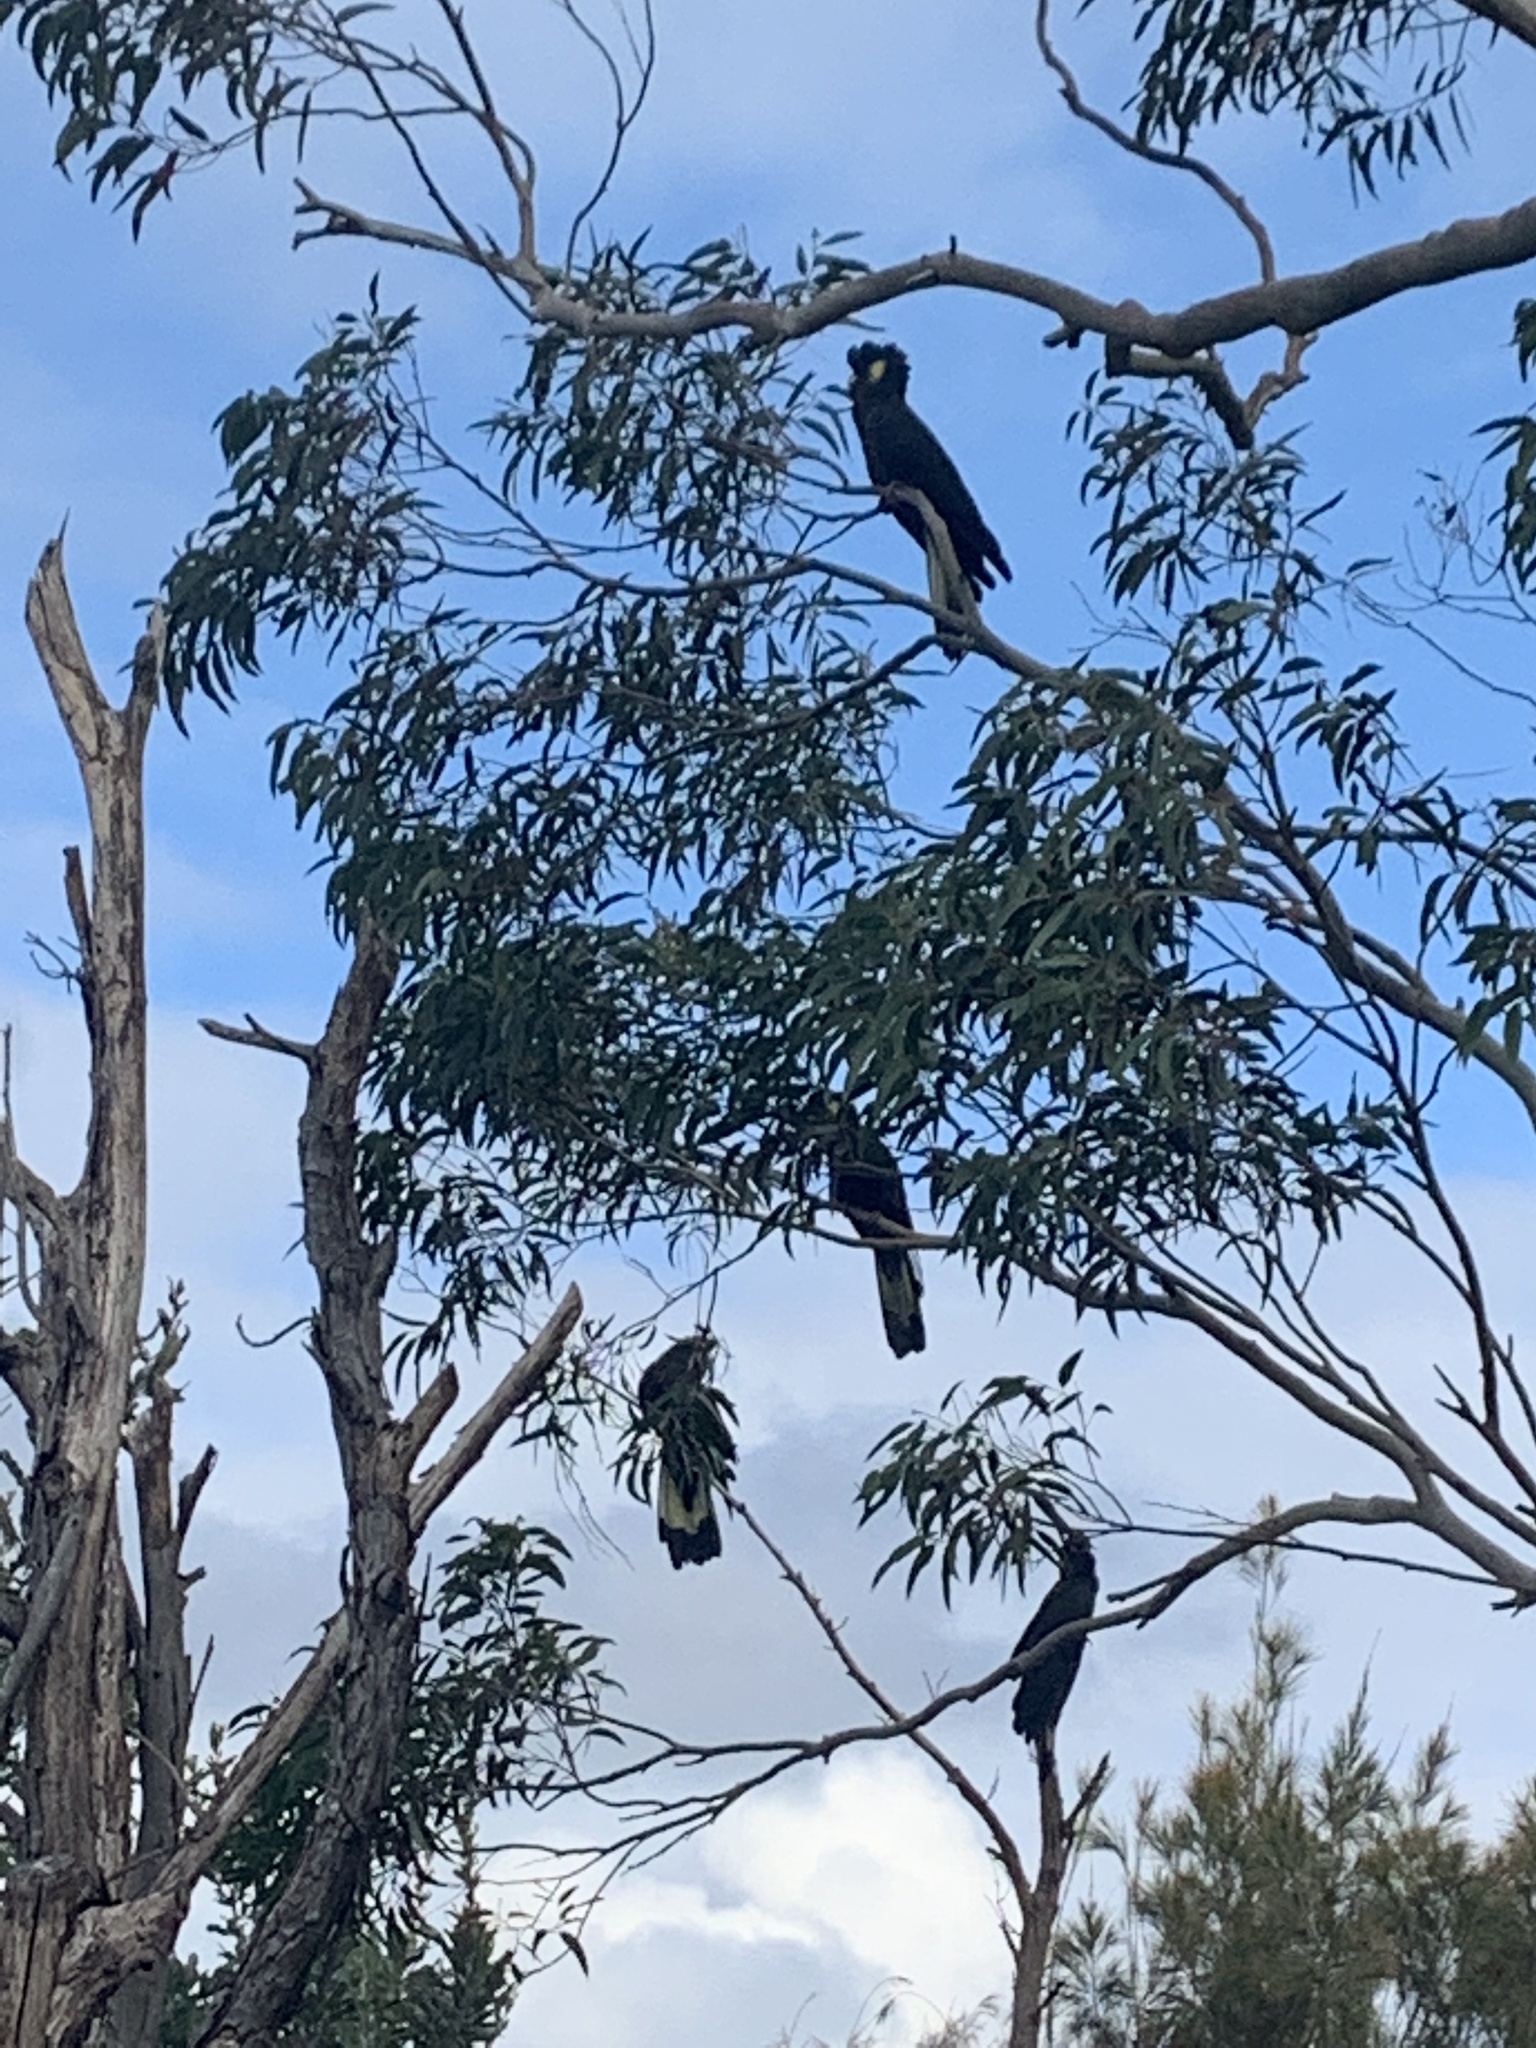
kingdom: Animalia
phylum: Chordata
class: Aves
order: Psittaciformes
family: Cacatuidae
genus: Zanda
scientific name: Zanda funerea
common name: Yellow-tailed black-cockatoo
